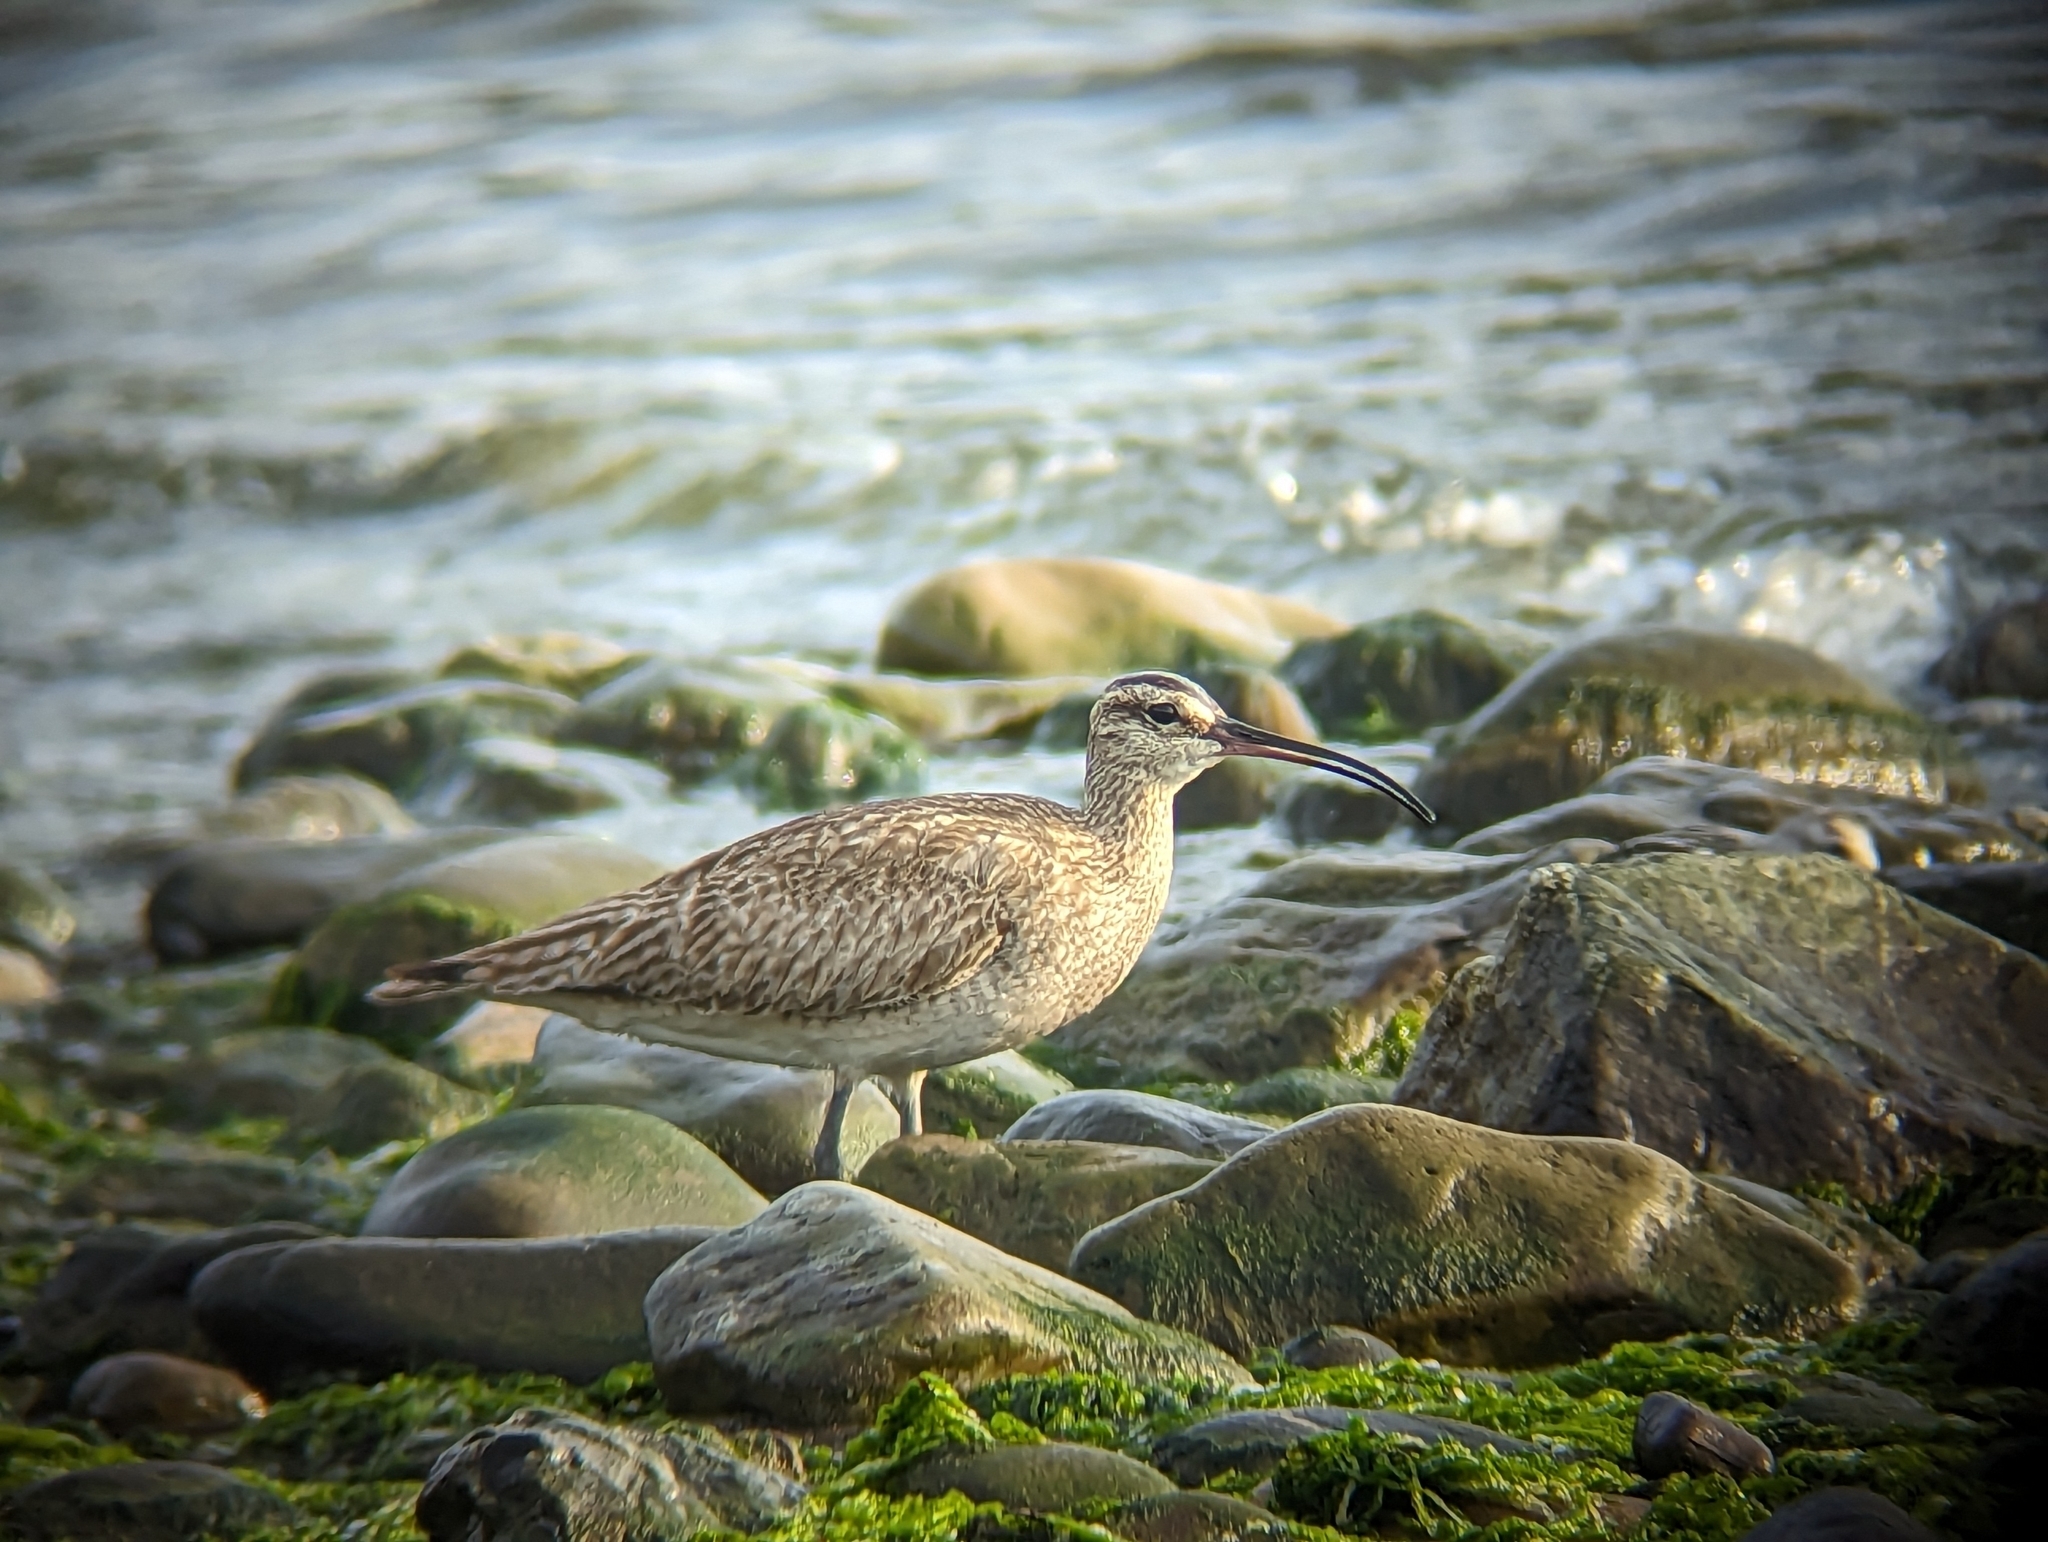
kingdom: Animalia
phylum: Chordata
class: Aves
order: Charadriiformes
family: Scolopacidae
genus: Numenius
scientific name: Numenius phaeopus
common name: Whimbrel
